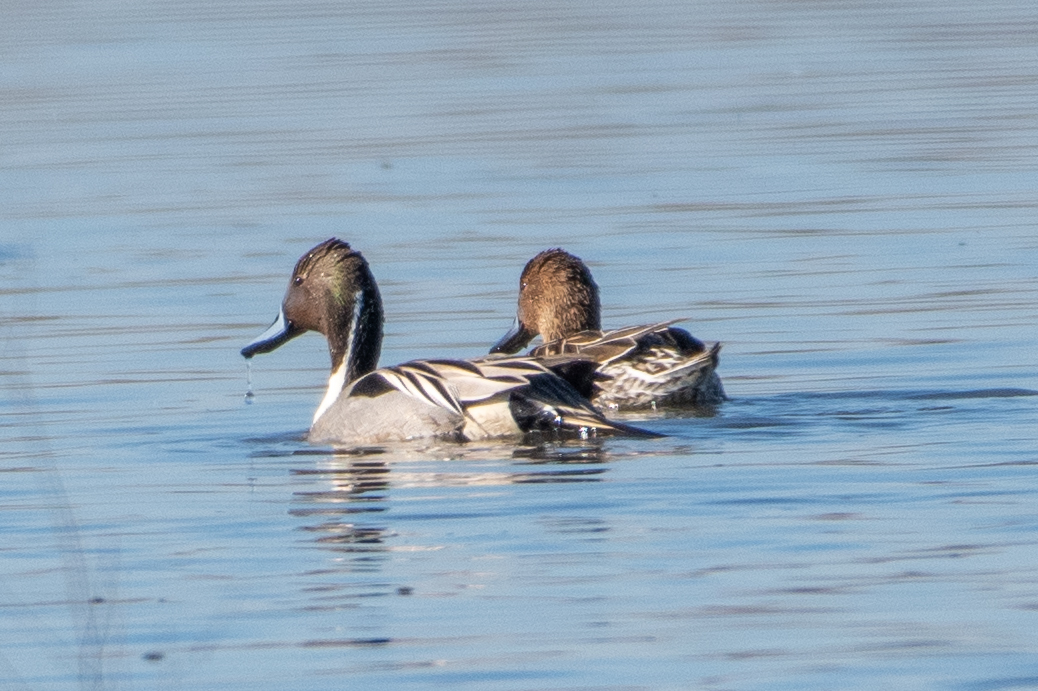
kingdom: Animalia
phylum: Chordata
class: Aves
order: Anseriformes
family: Anatidae
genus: Anas
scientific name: Anas acuta
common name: Northern pintail
